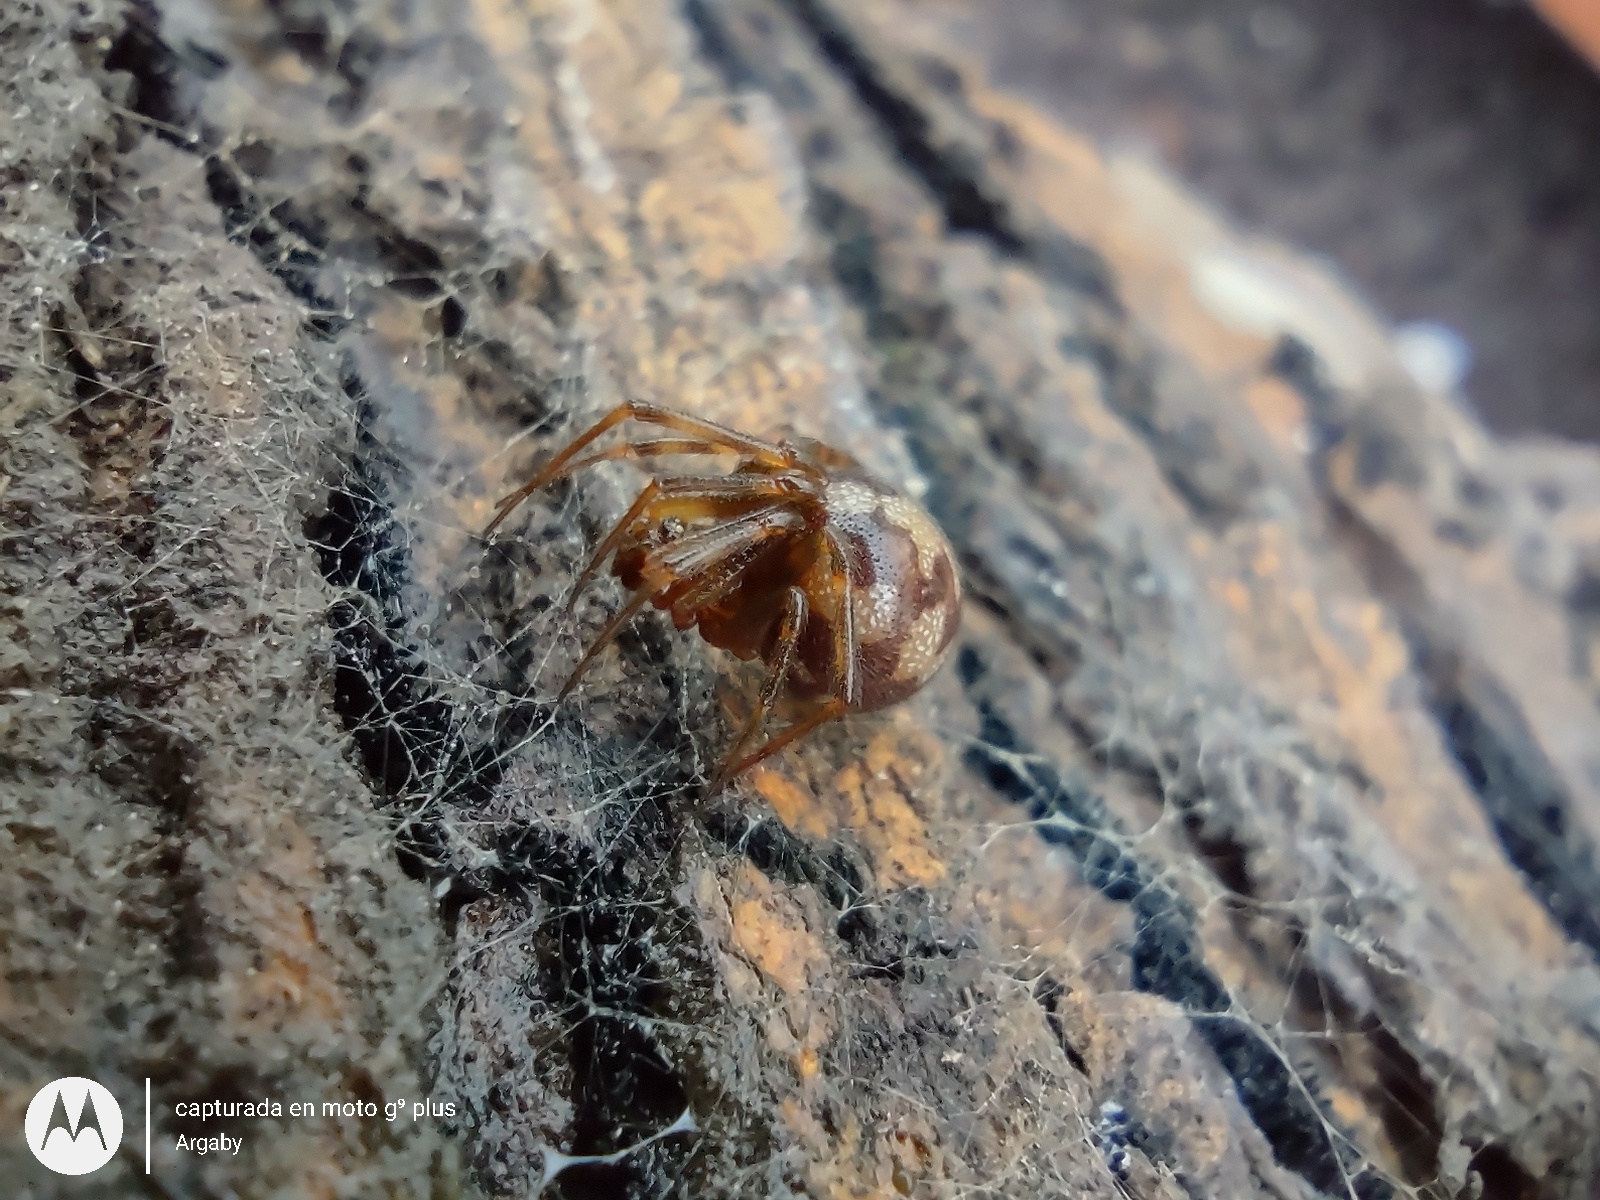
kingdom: Animalia
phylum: Arthropoda
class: Arachnida
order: Araneae
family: Theridiidae
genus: Steatoda
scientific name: Steatoda triangulosa
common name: Triangulate bud spider
